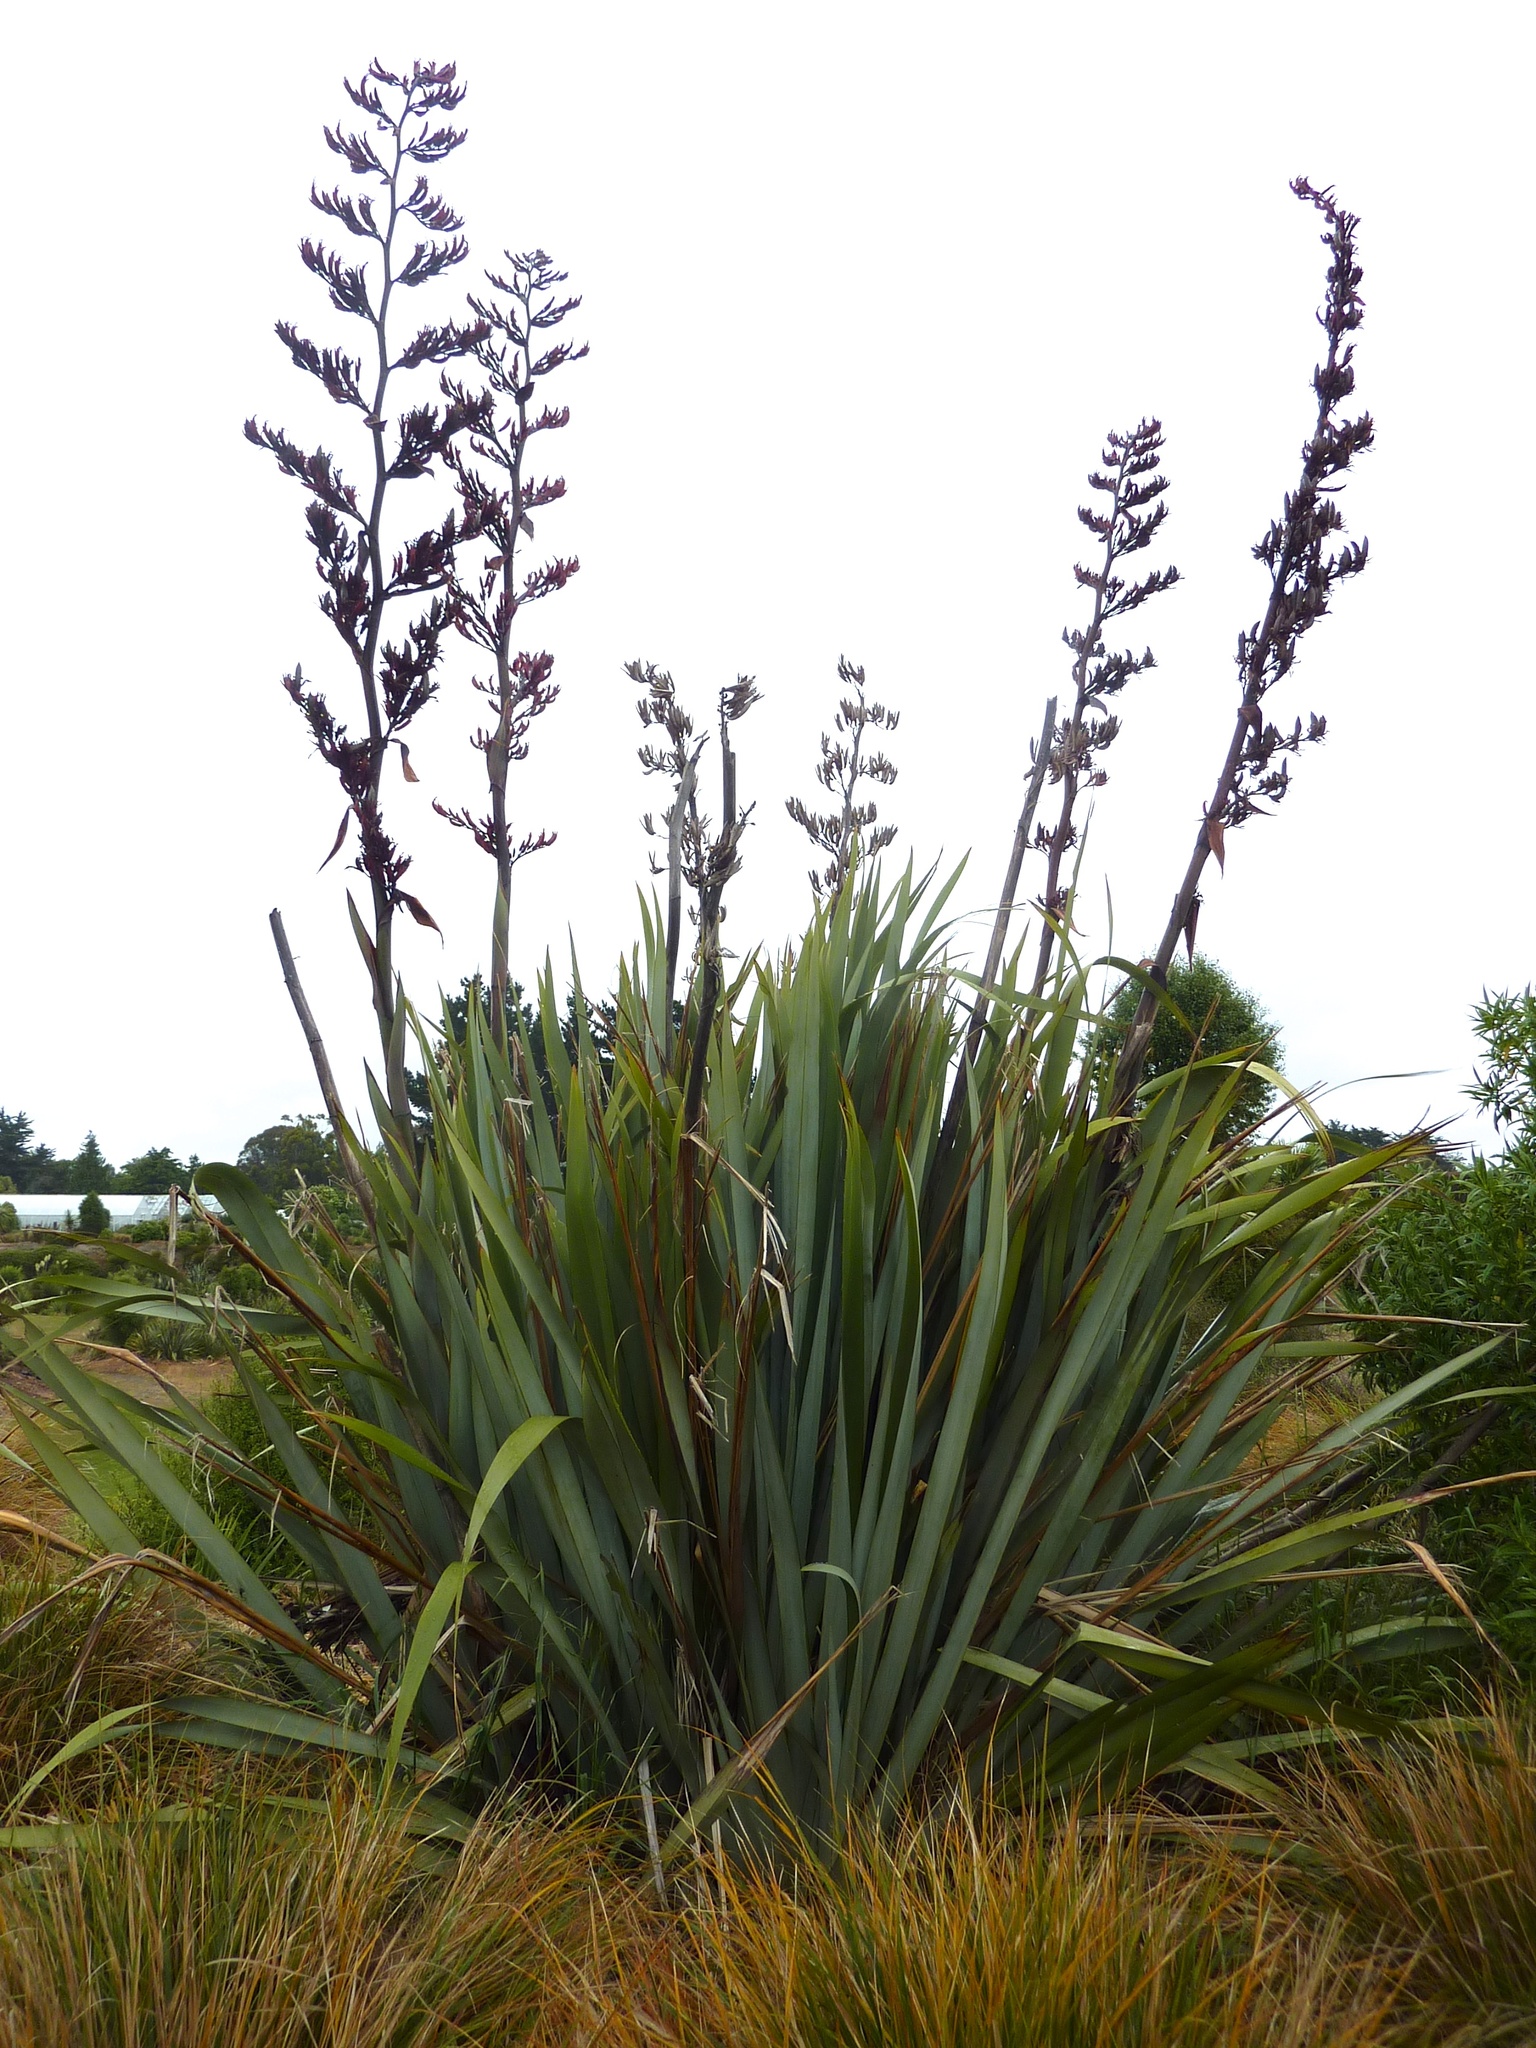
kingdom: Plantae
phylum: Tracheophyta
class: Liliopsida
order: Asparagales
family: Asphodelaceae
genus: Phormium
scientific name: Phormium tenax
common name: New zealand flax
